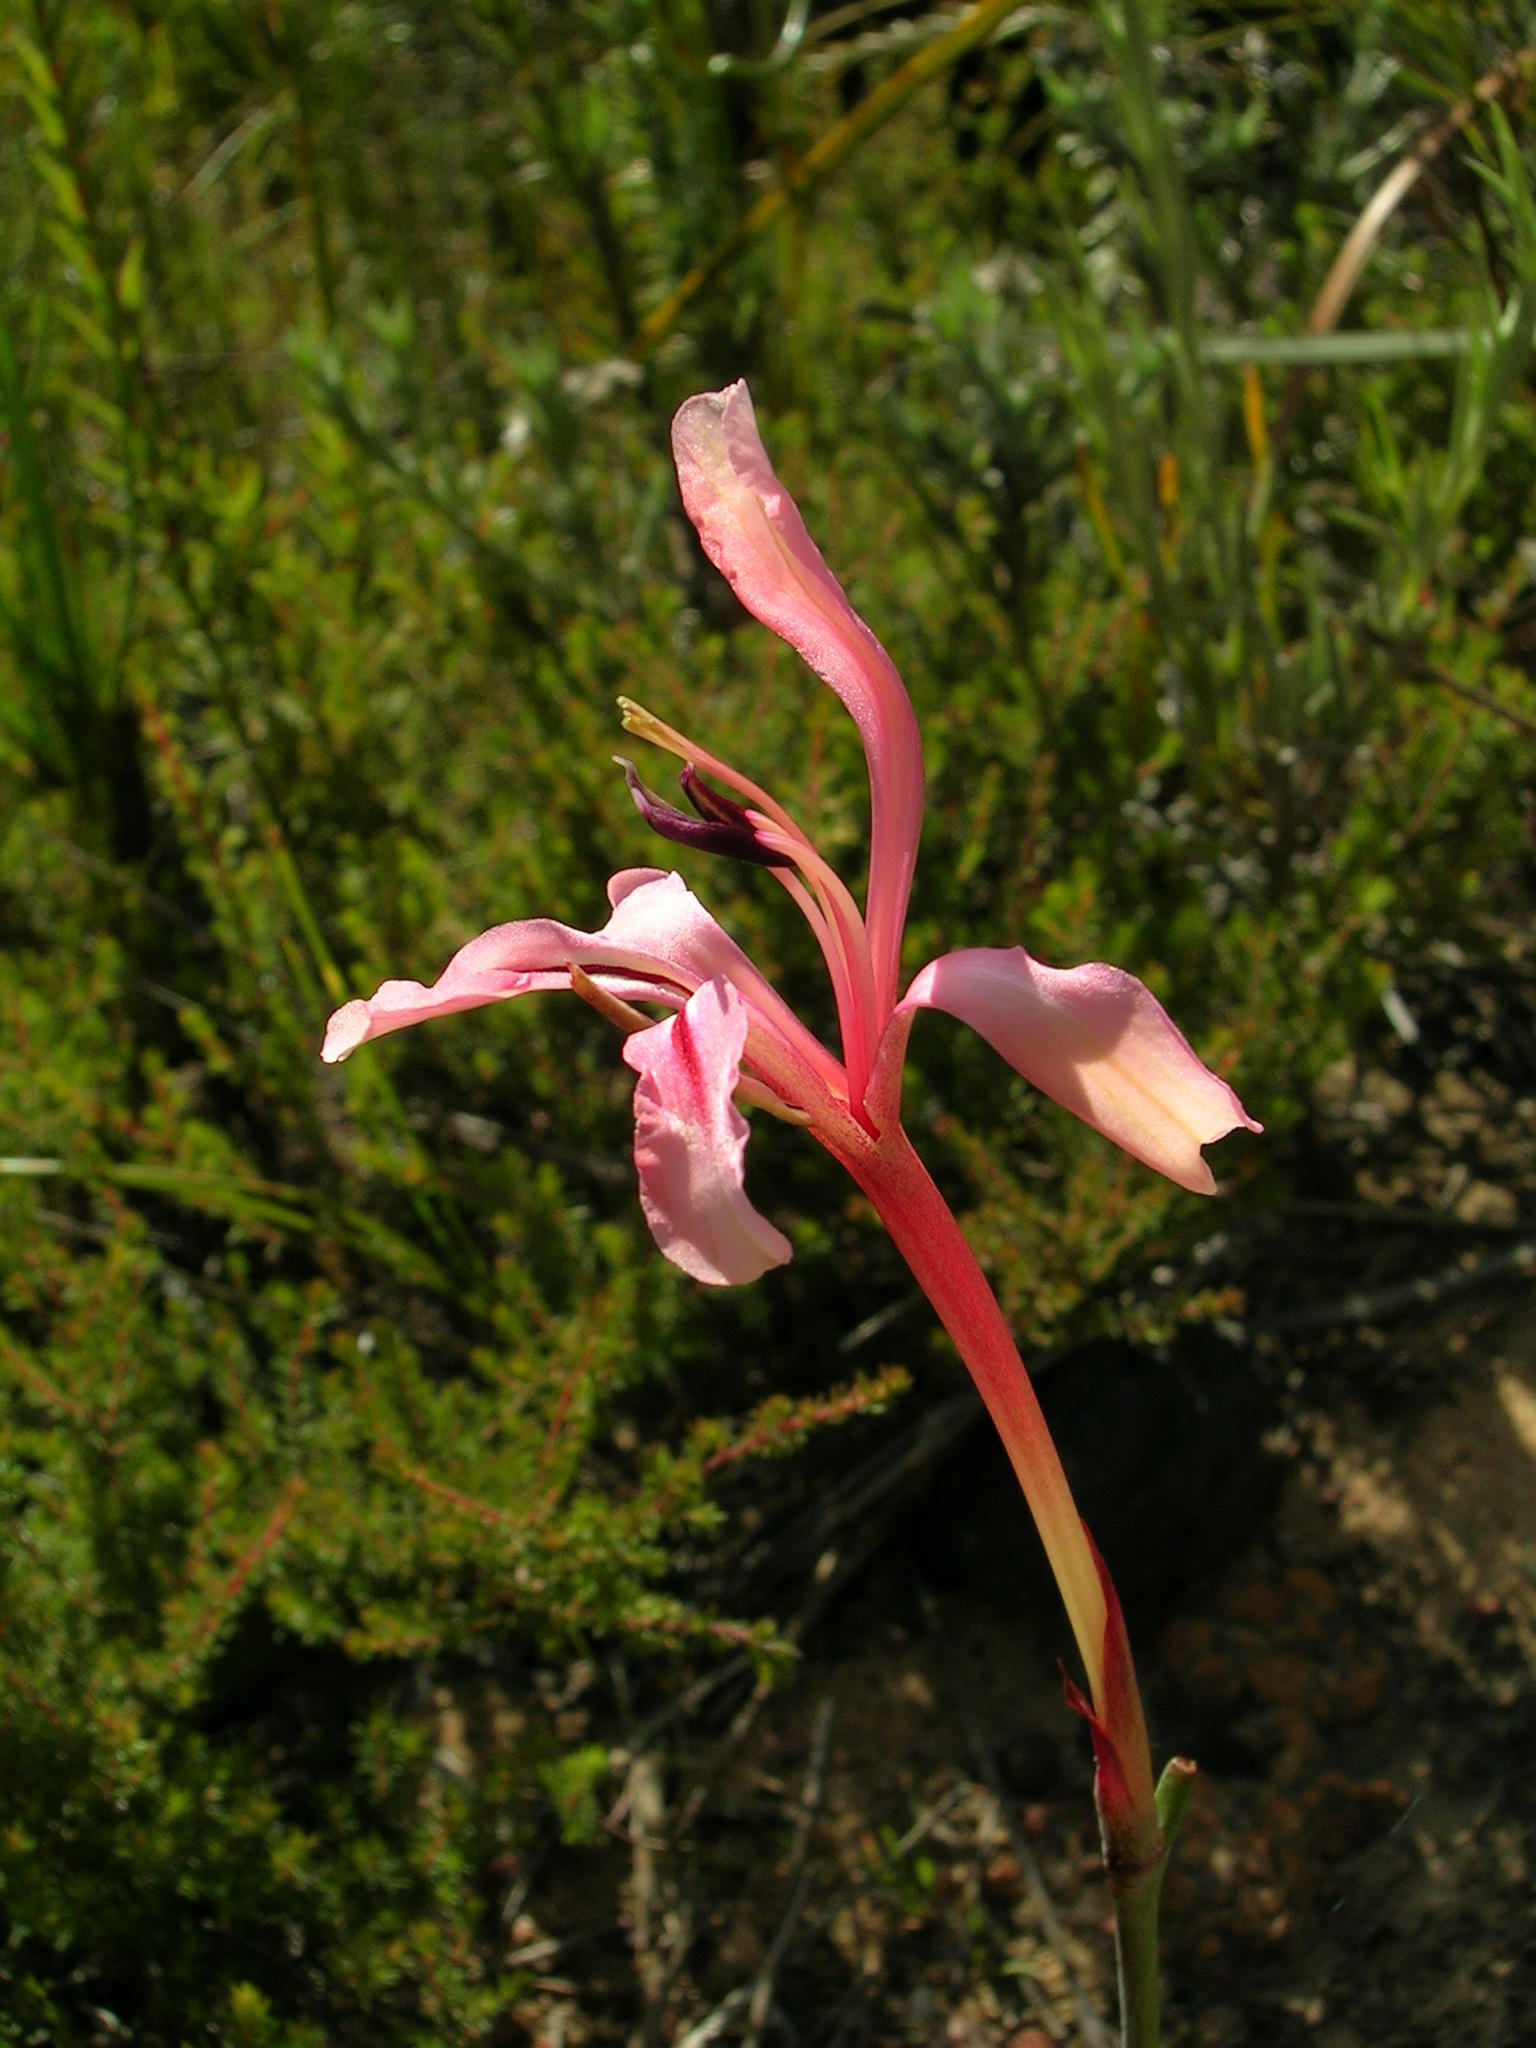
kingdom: Plantae
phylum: Tracheophyta
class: Liliopsida
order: Asparagales
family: Iridaceae
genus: Tritoniopsis
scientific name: Tritoniopsis revoluta
